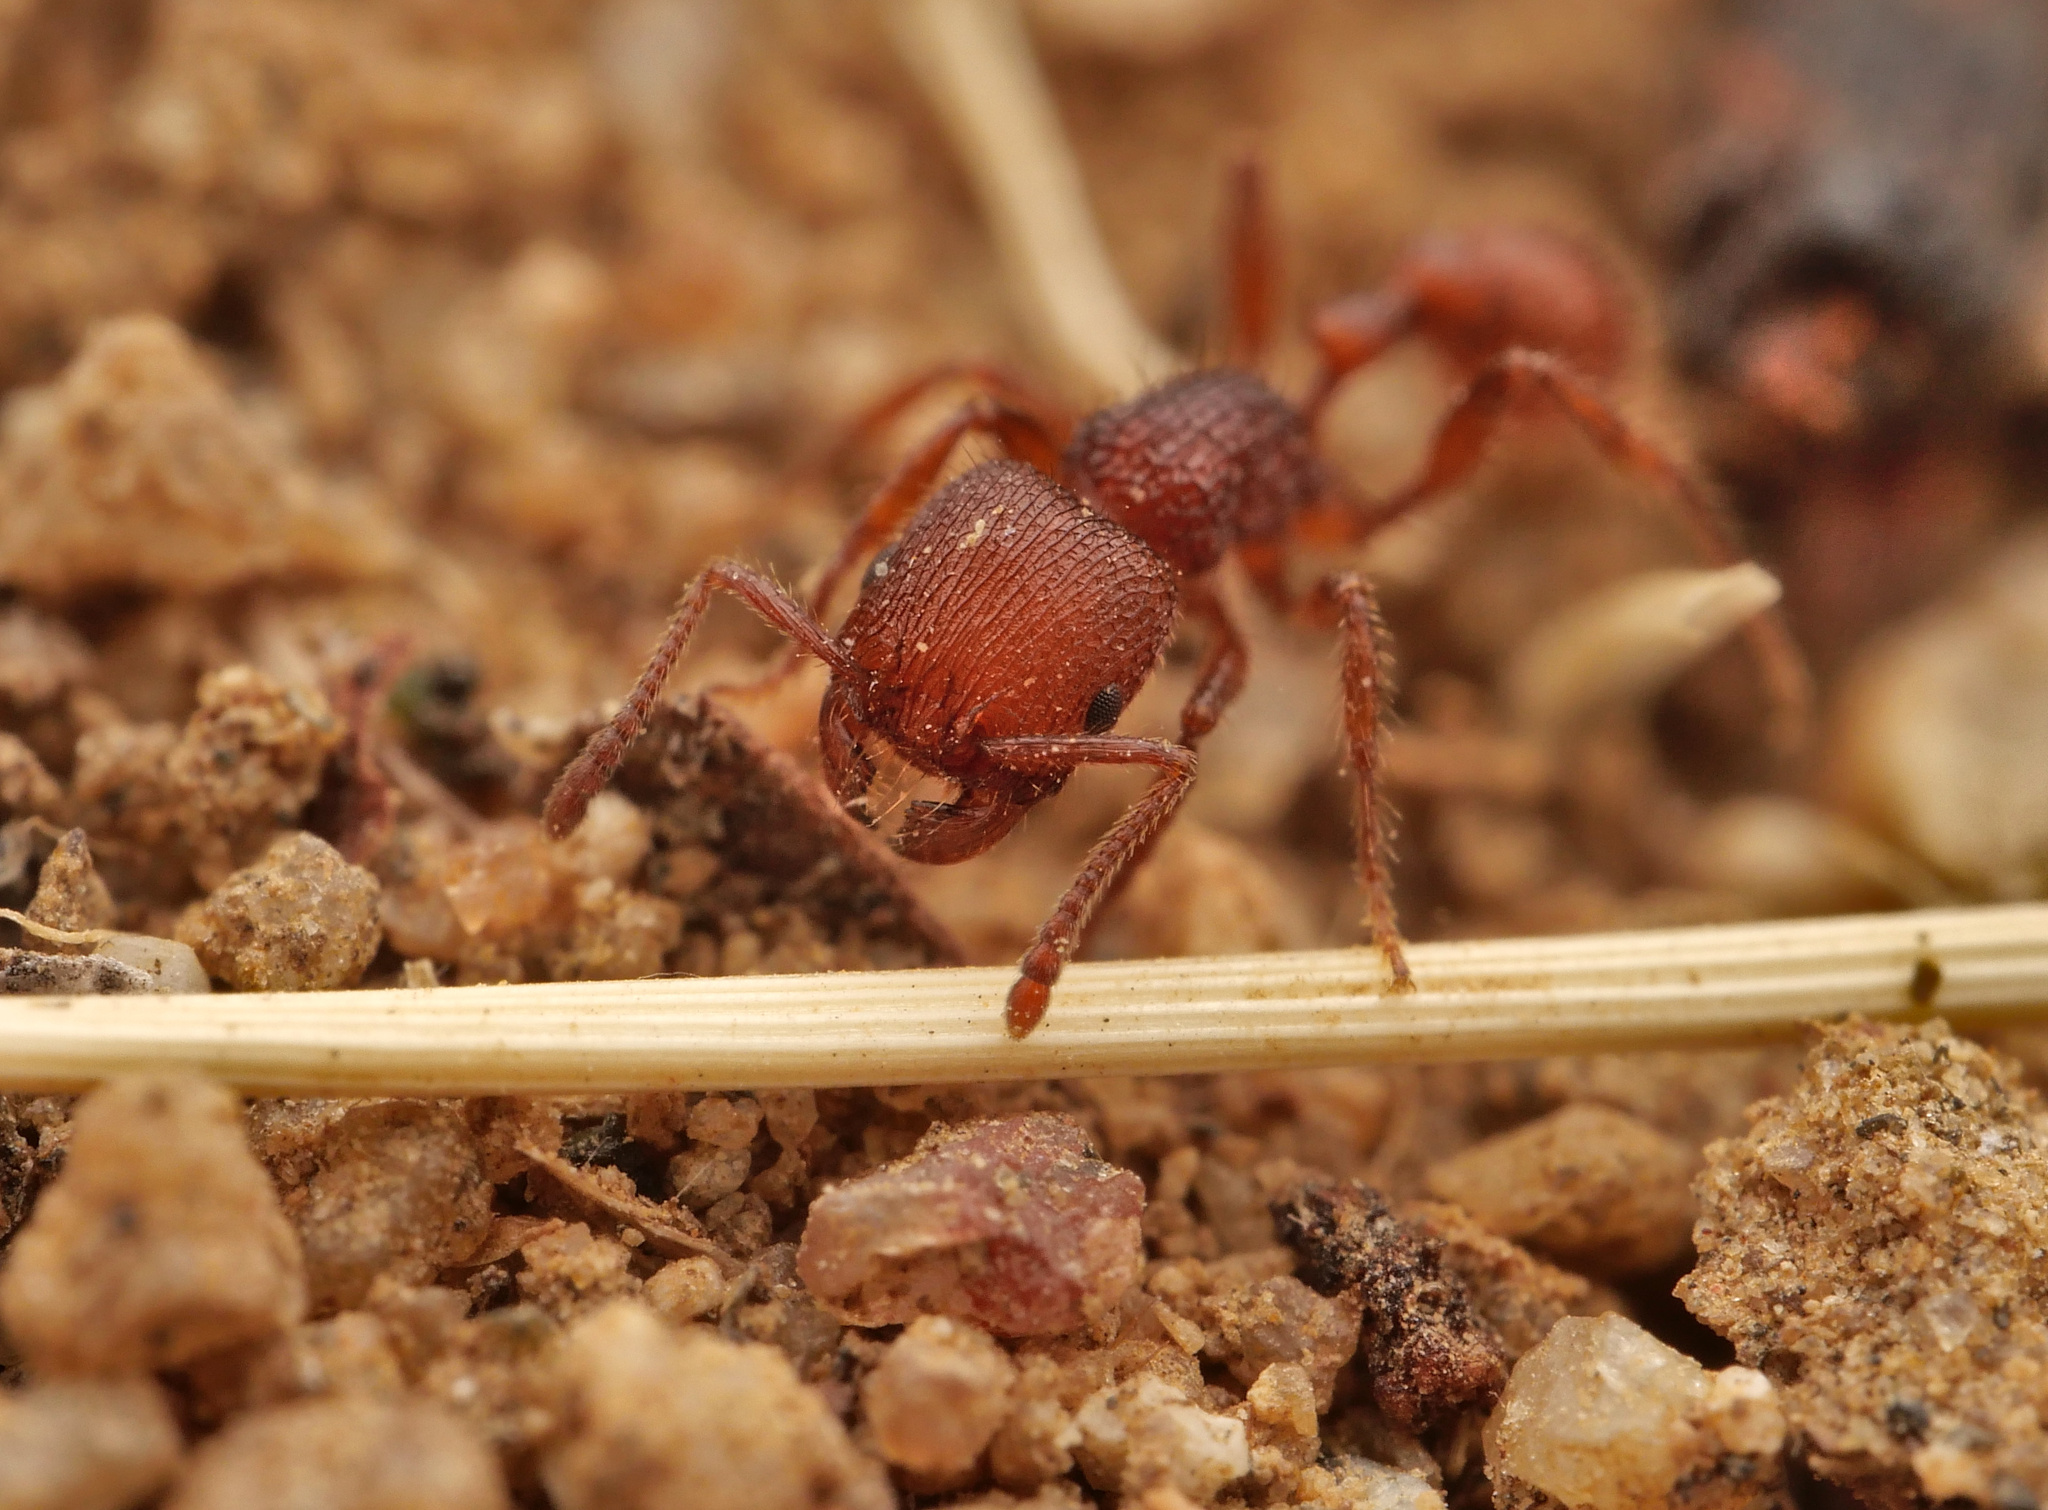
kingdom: Animalia
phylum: Arthropoda
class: Insecta
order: Hymenoptera
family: Formicidae
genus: Pogonomyrmex
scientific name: Pogonomyrmex laevinodis
